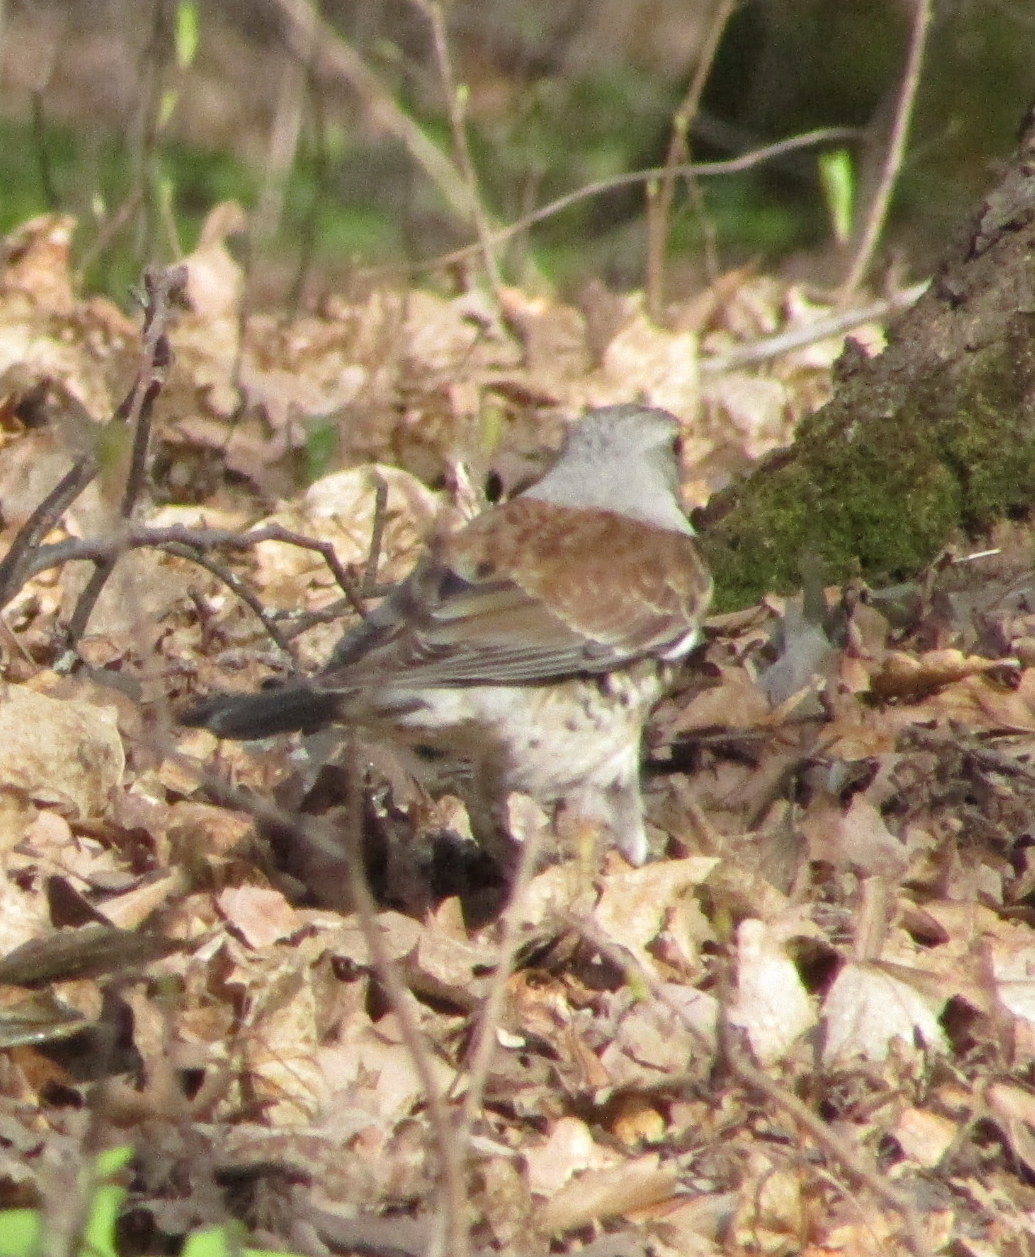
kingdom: Animalia
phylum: Chordata
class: Aves
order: Passeriformes
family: Turdidae
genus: Turdus
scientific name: Turdus pilaris
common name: Fieldfare
